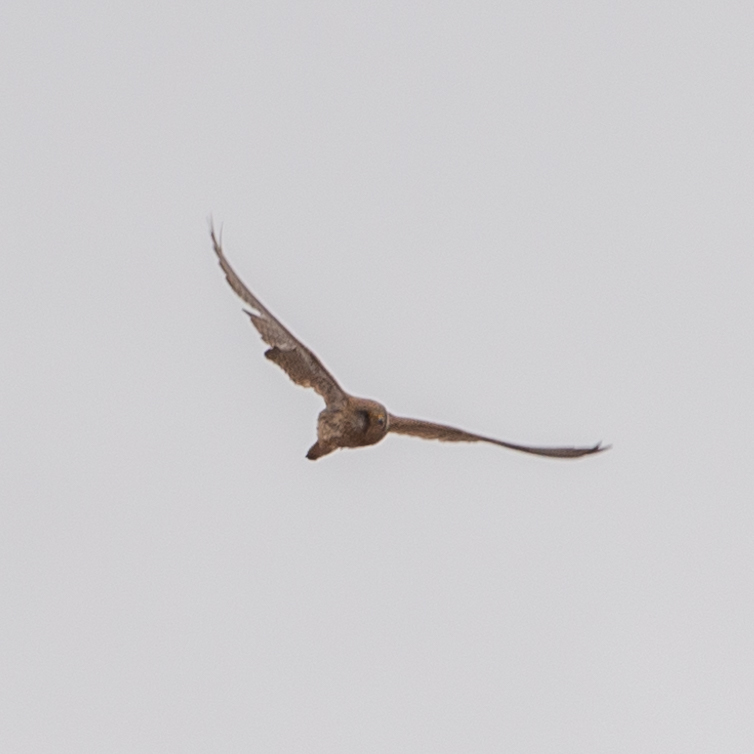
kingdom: Animalia
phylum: Chordata
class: Aves
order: Falconiformes
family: Falconidae
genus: Falco
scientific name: Falco tinnunculus
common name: Common kestrel
